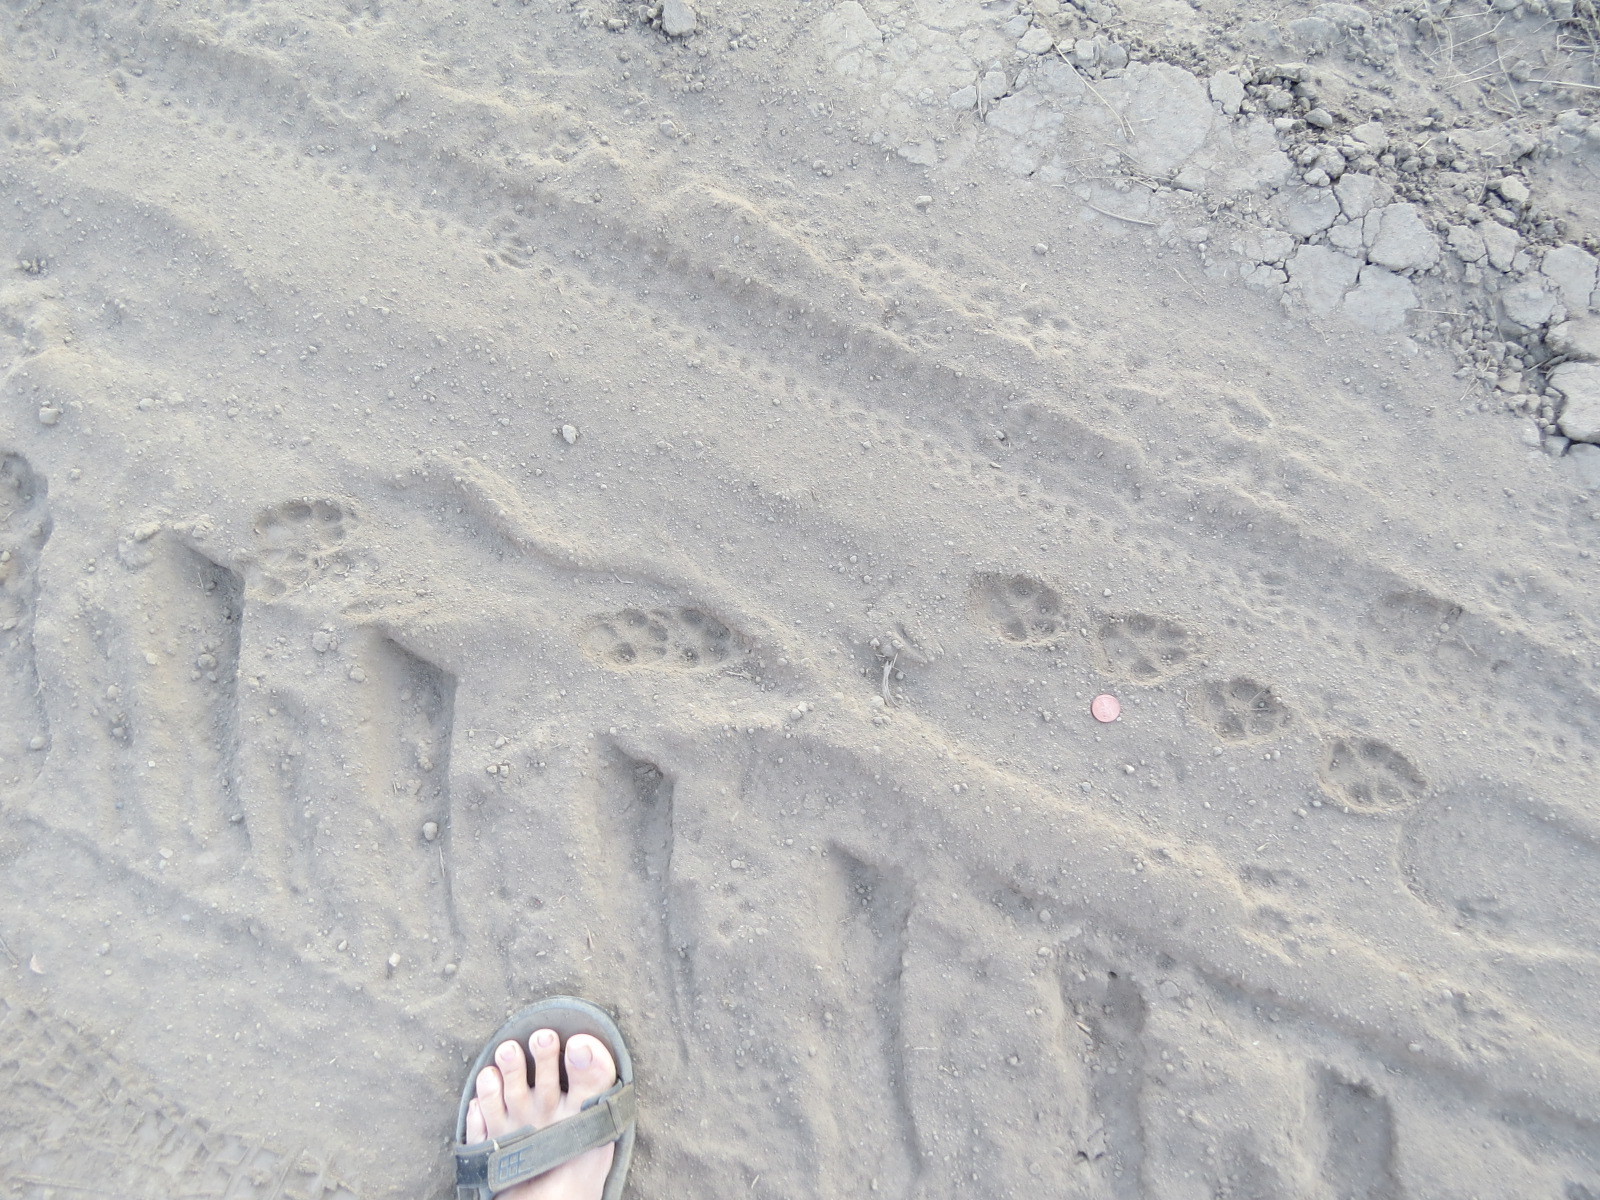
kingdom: Animalia
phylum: Chordata
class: Mammalia
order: Carnivora
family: Canidae
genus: Canis
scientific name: Canis latrans
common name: Coyote
